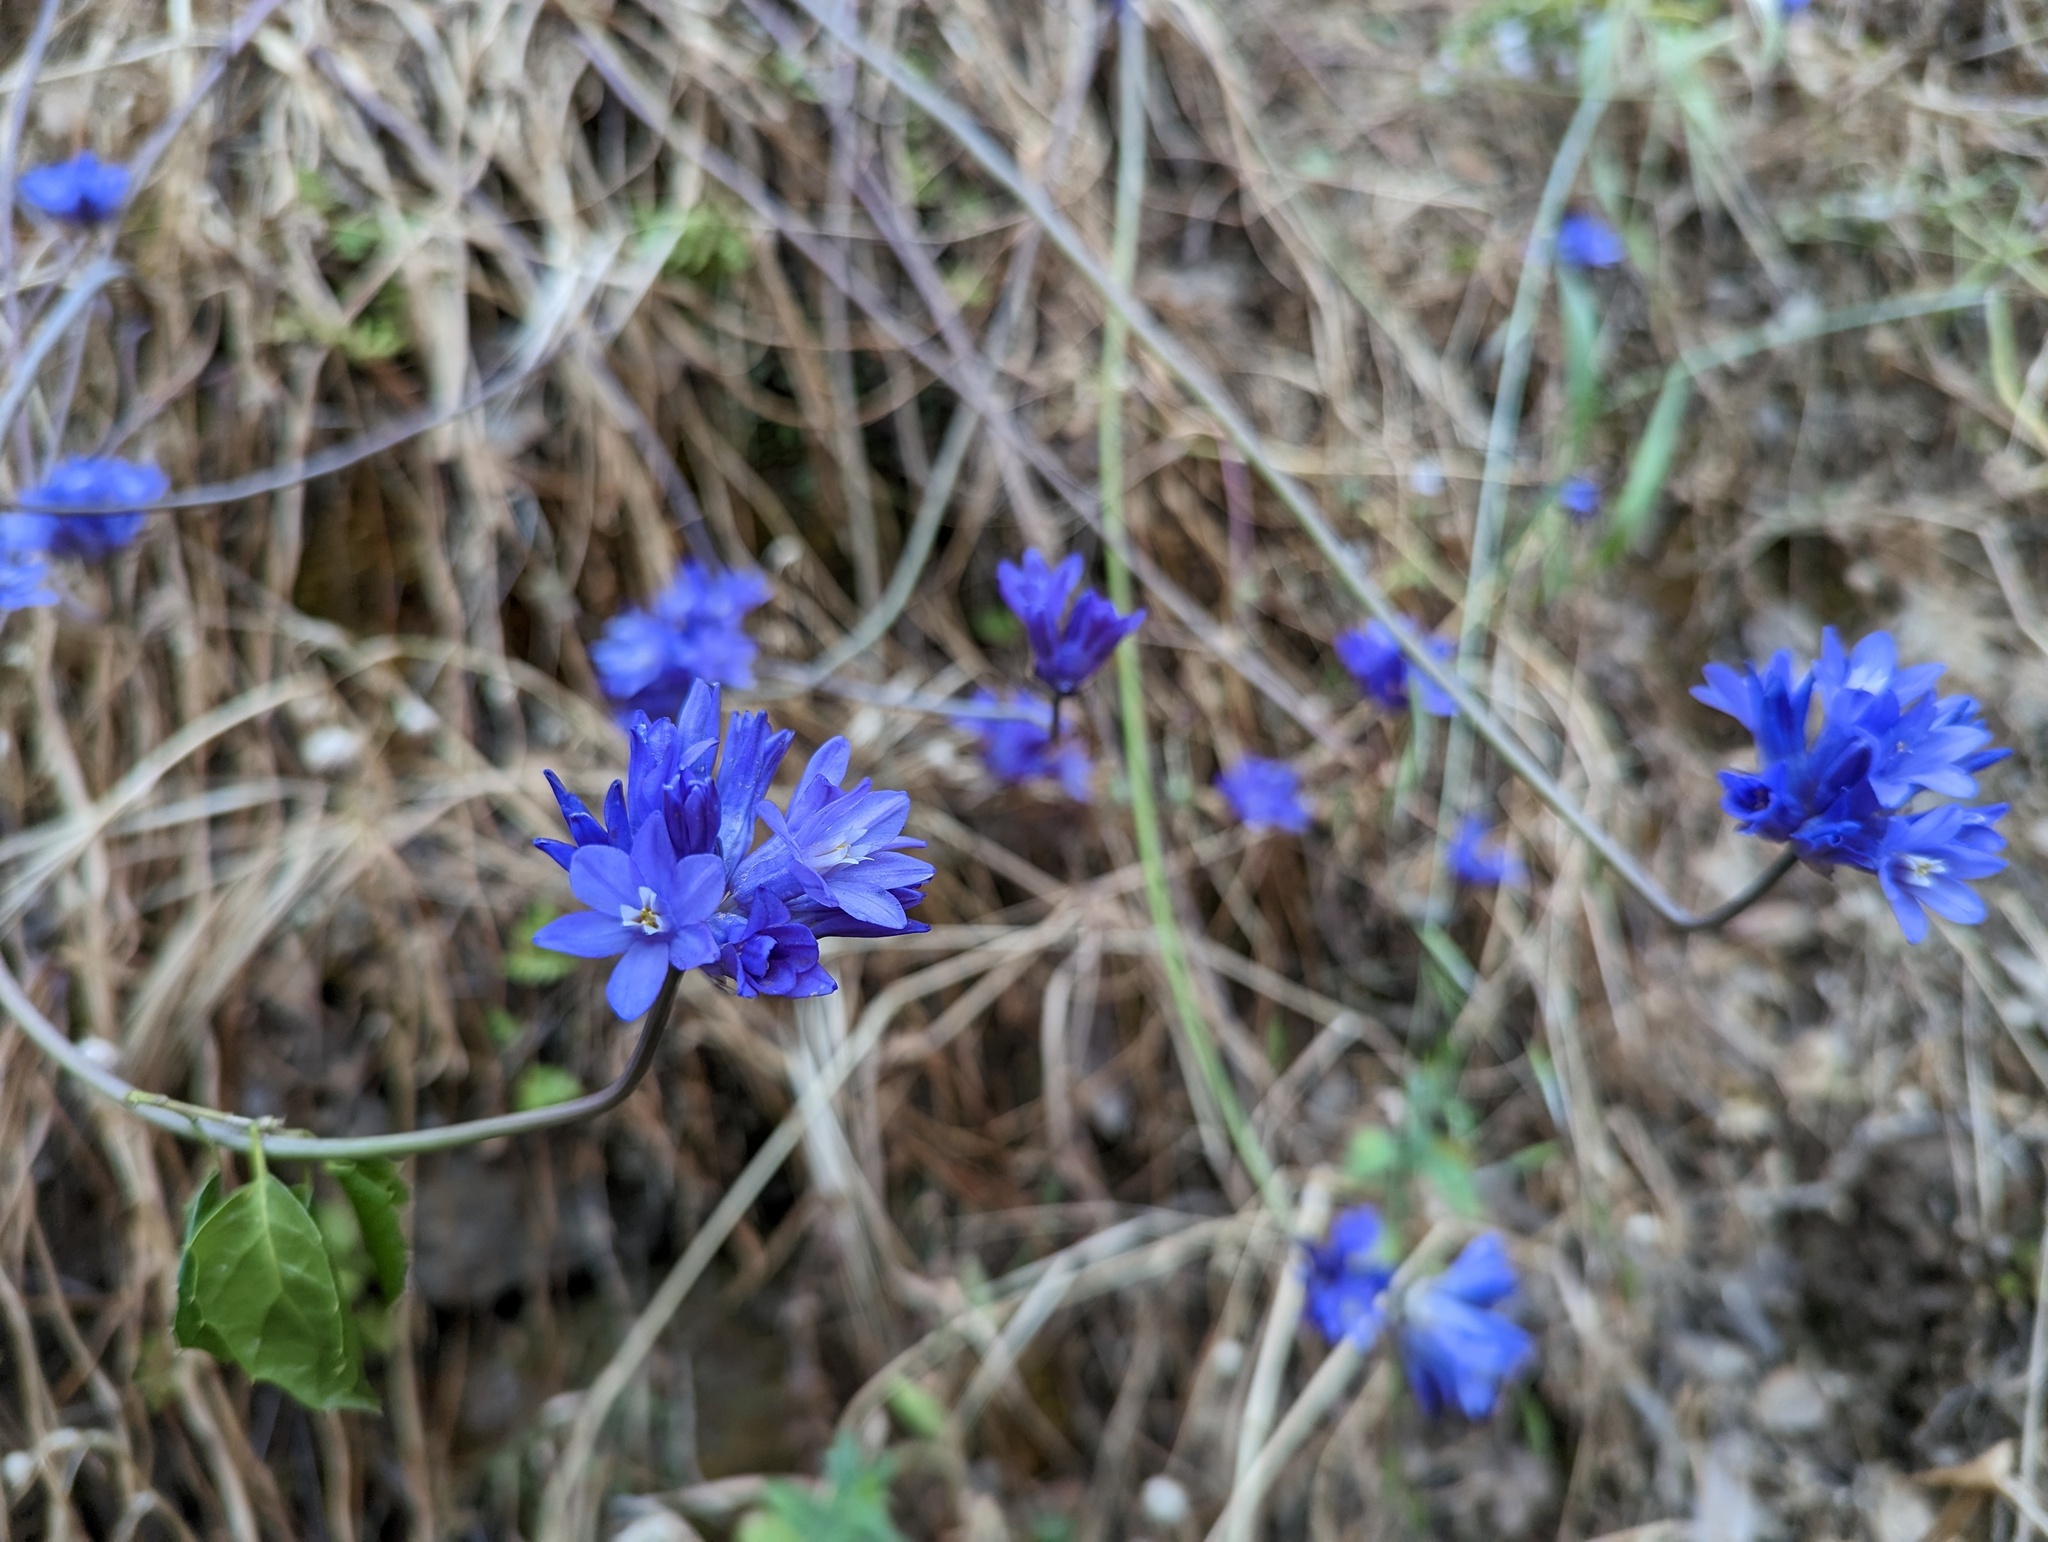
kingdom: Plantae
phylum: Tracheophyta
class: Liliopsida
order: Asparagales
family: Asparagaceae
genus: Dipterostemon
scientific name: Dipterostemon capitatus
